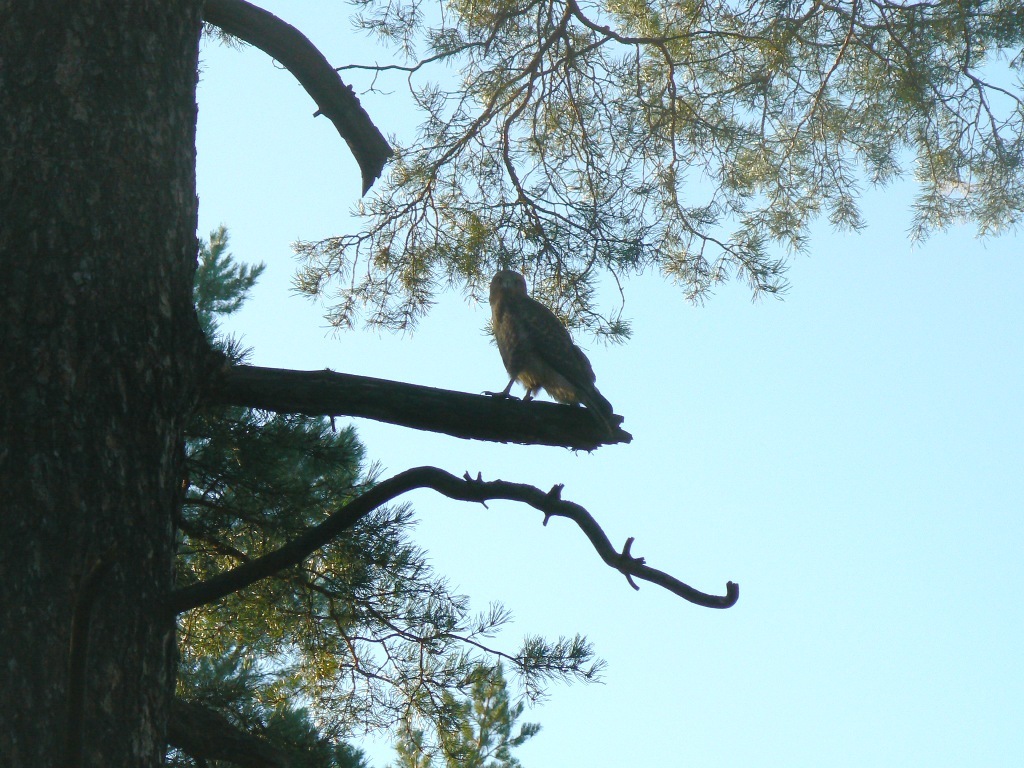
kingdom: Animalia
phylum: Chordata
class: Aves
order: Accipitriformes
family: Accipitridae
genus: Buteo
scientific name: Buteo buteo
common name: Common buzzard
